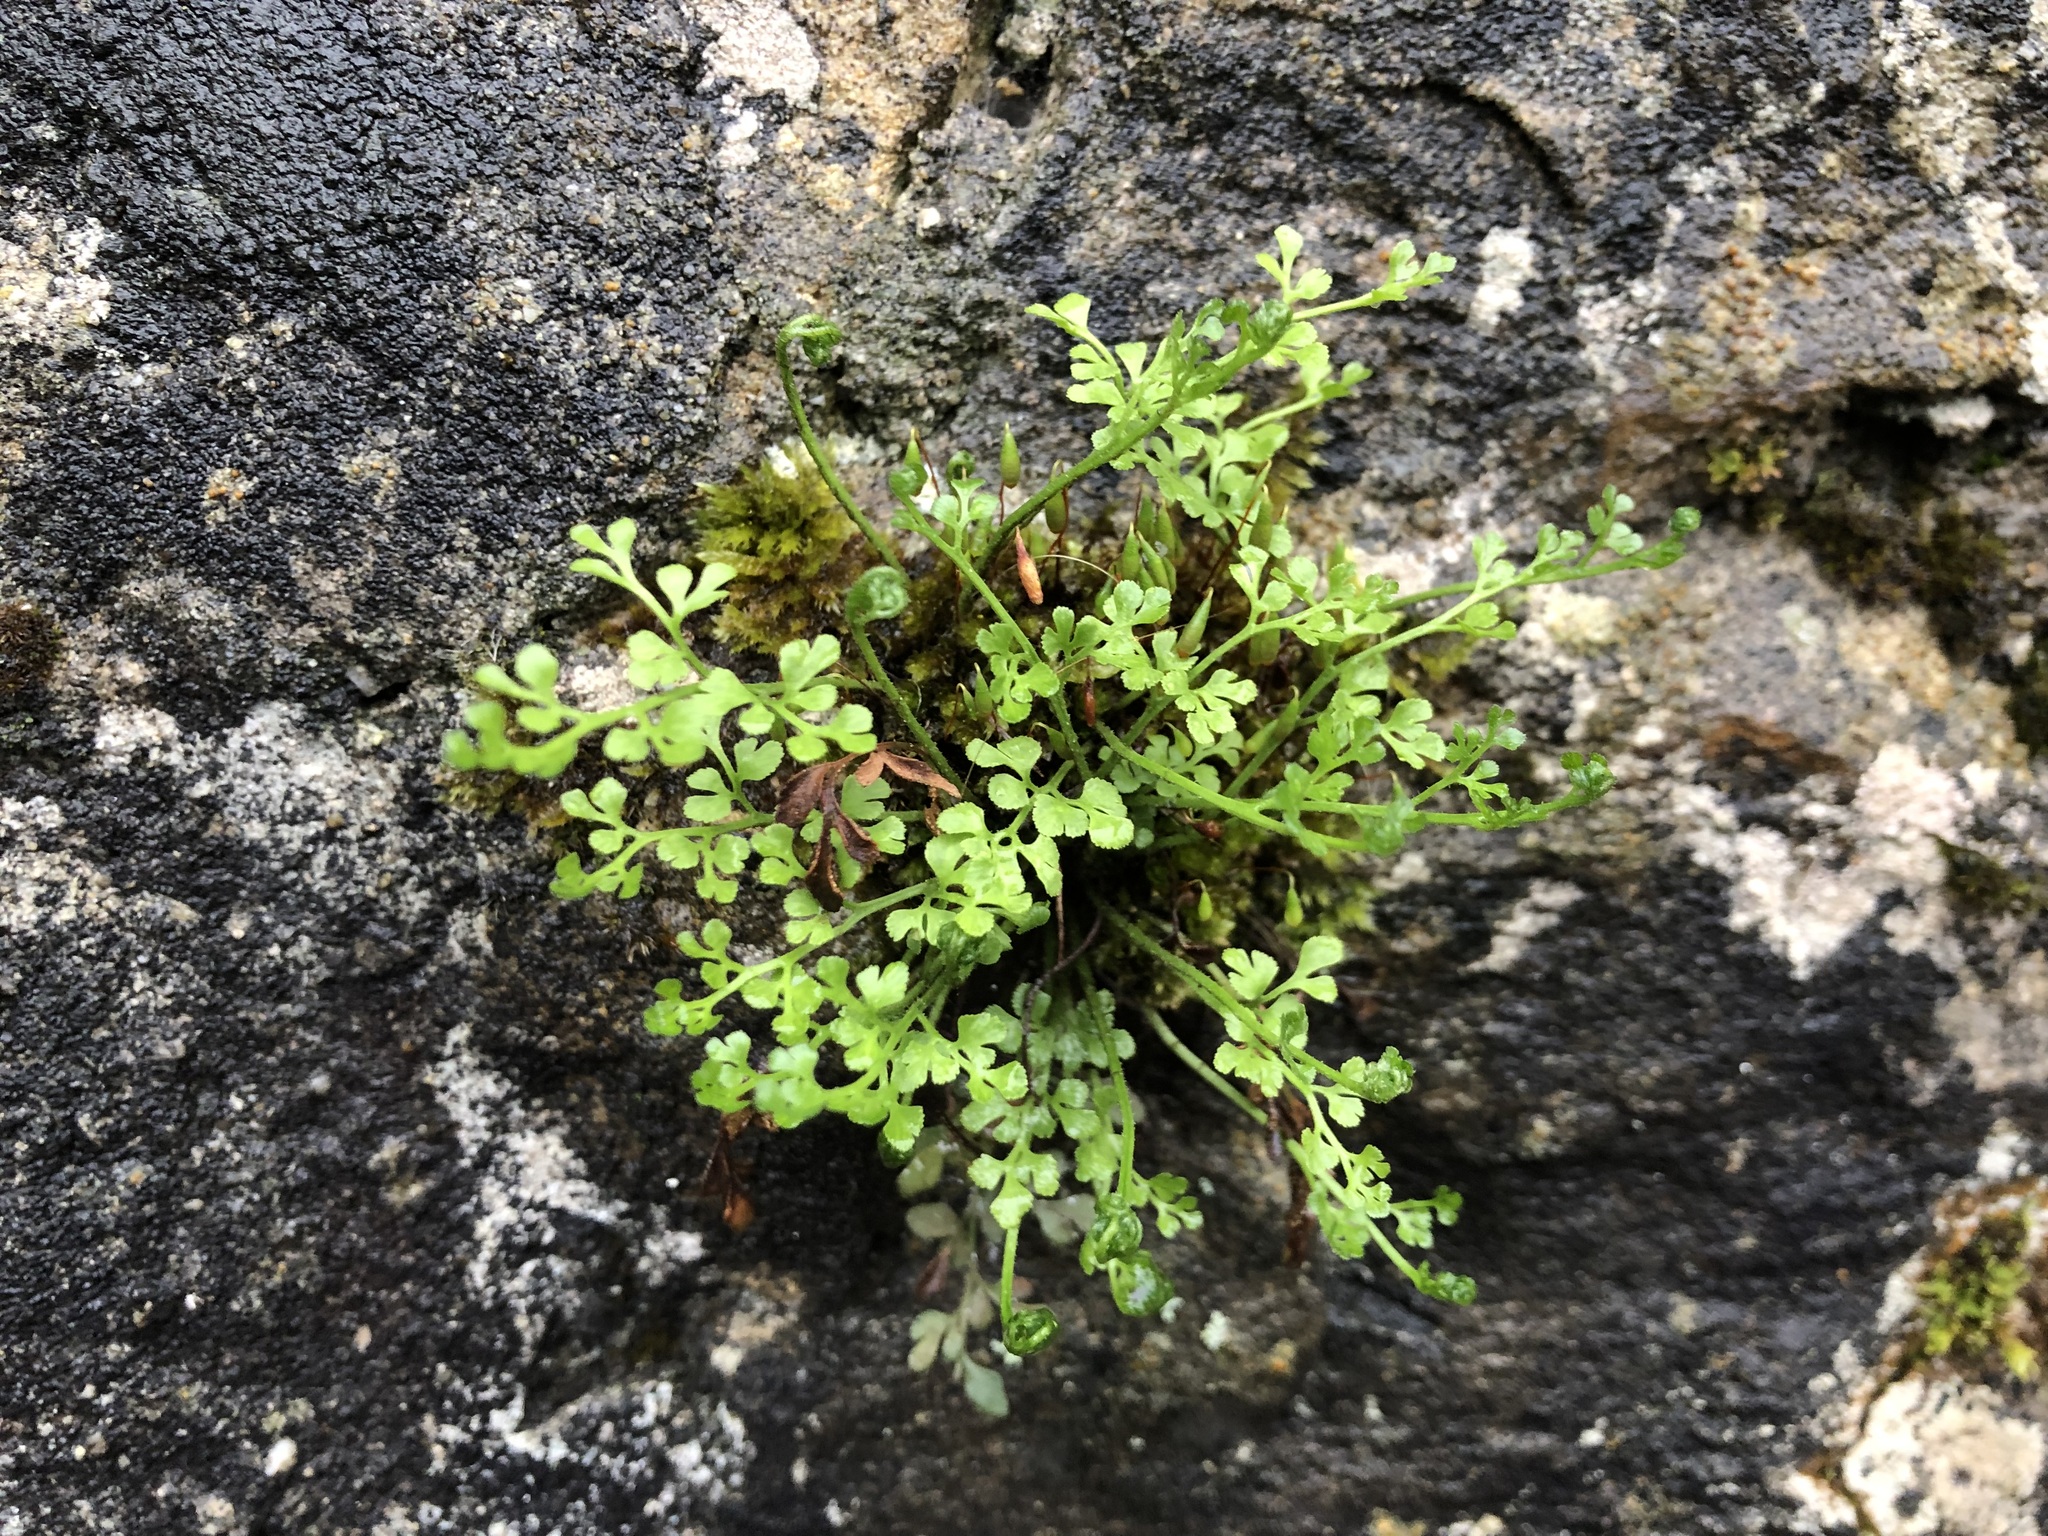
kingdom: Plantae
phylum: Tracheophyta
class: Polypodiopsida
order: Polypodiales
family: Aspleniaceae
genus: Asplenium
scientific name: Asplenium ruta-muraria
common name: Wall-rue
